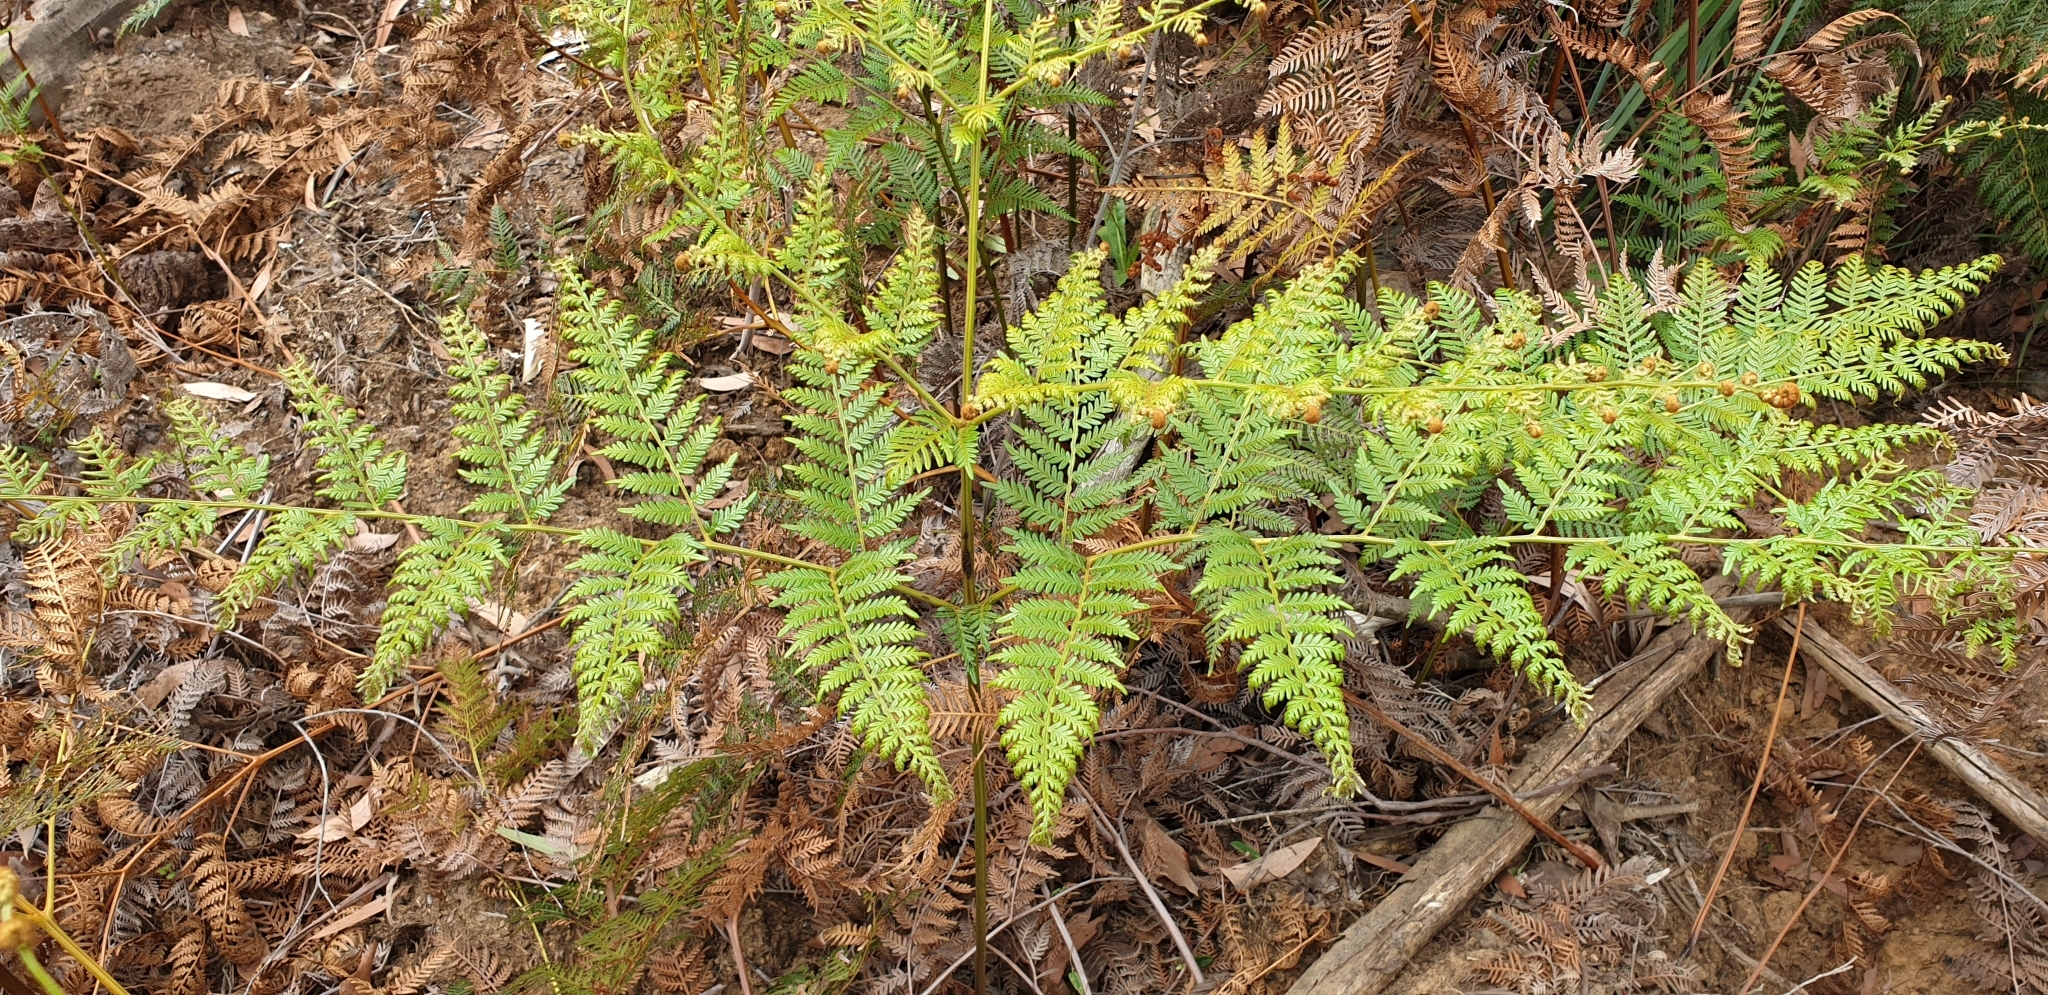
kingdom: Plantae
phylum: Tracheophyta
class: Polypodiopsida
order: Polypodiales
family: Dennstaedtiaceae
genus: Pteridium
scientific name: Pteridium esculentum
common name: Bracken fern
